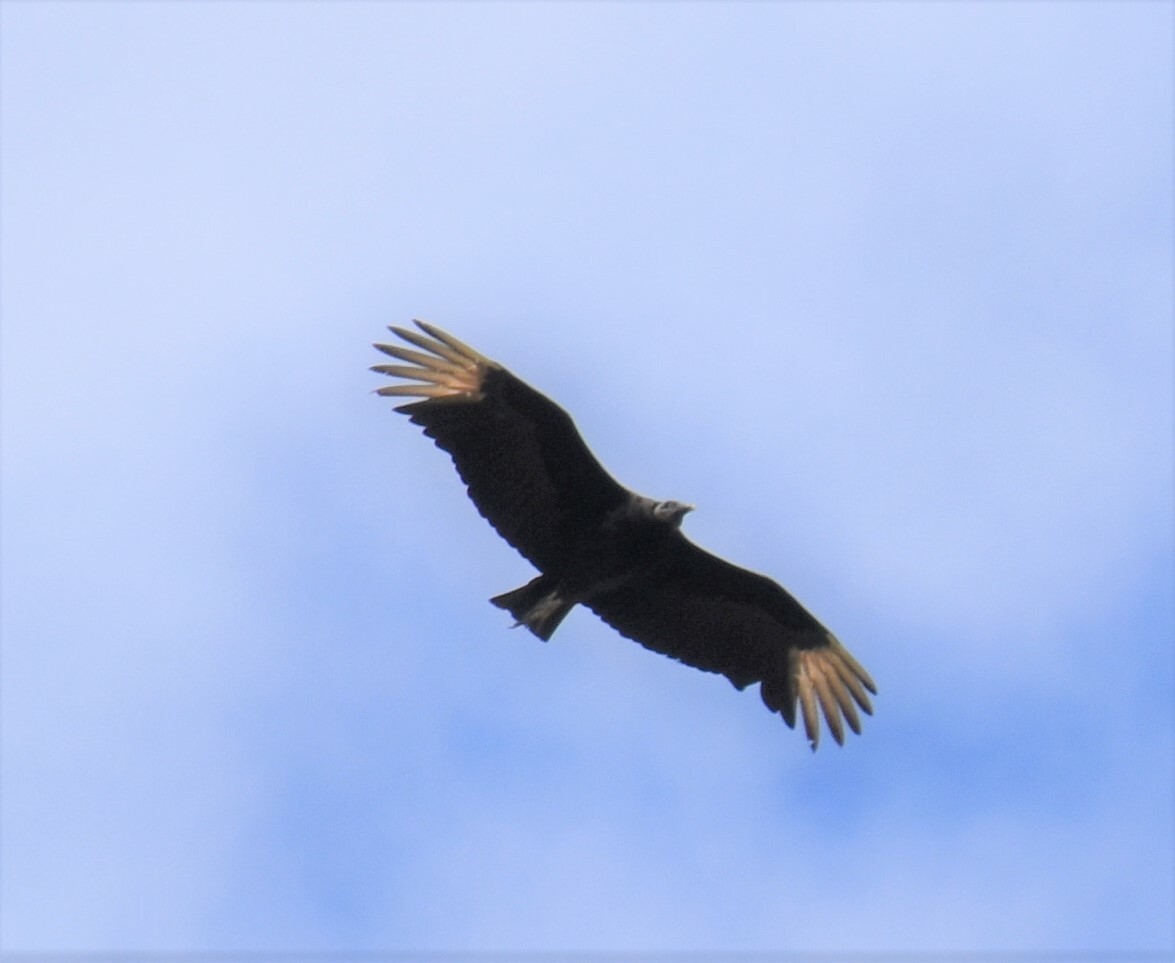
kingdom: Animalia
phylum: Chordata
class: Aves
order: Accipitriformes
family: Cathartidae
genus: Coragyps
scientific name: Coragyps atratus
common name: Black vulture
